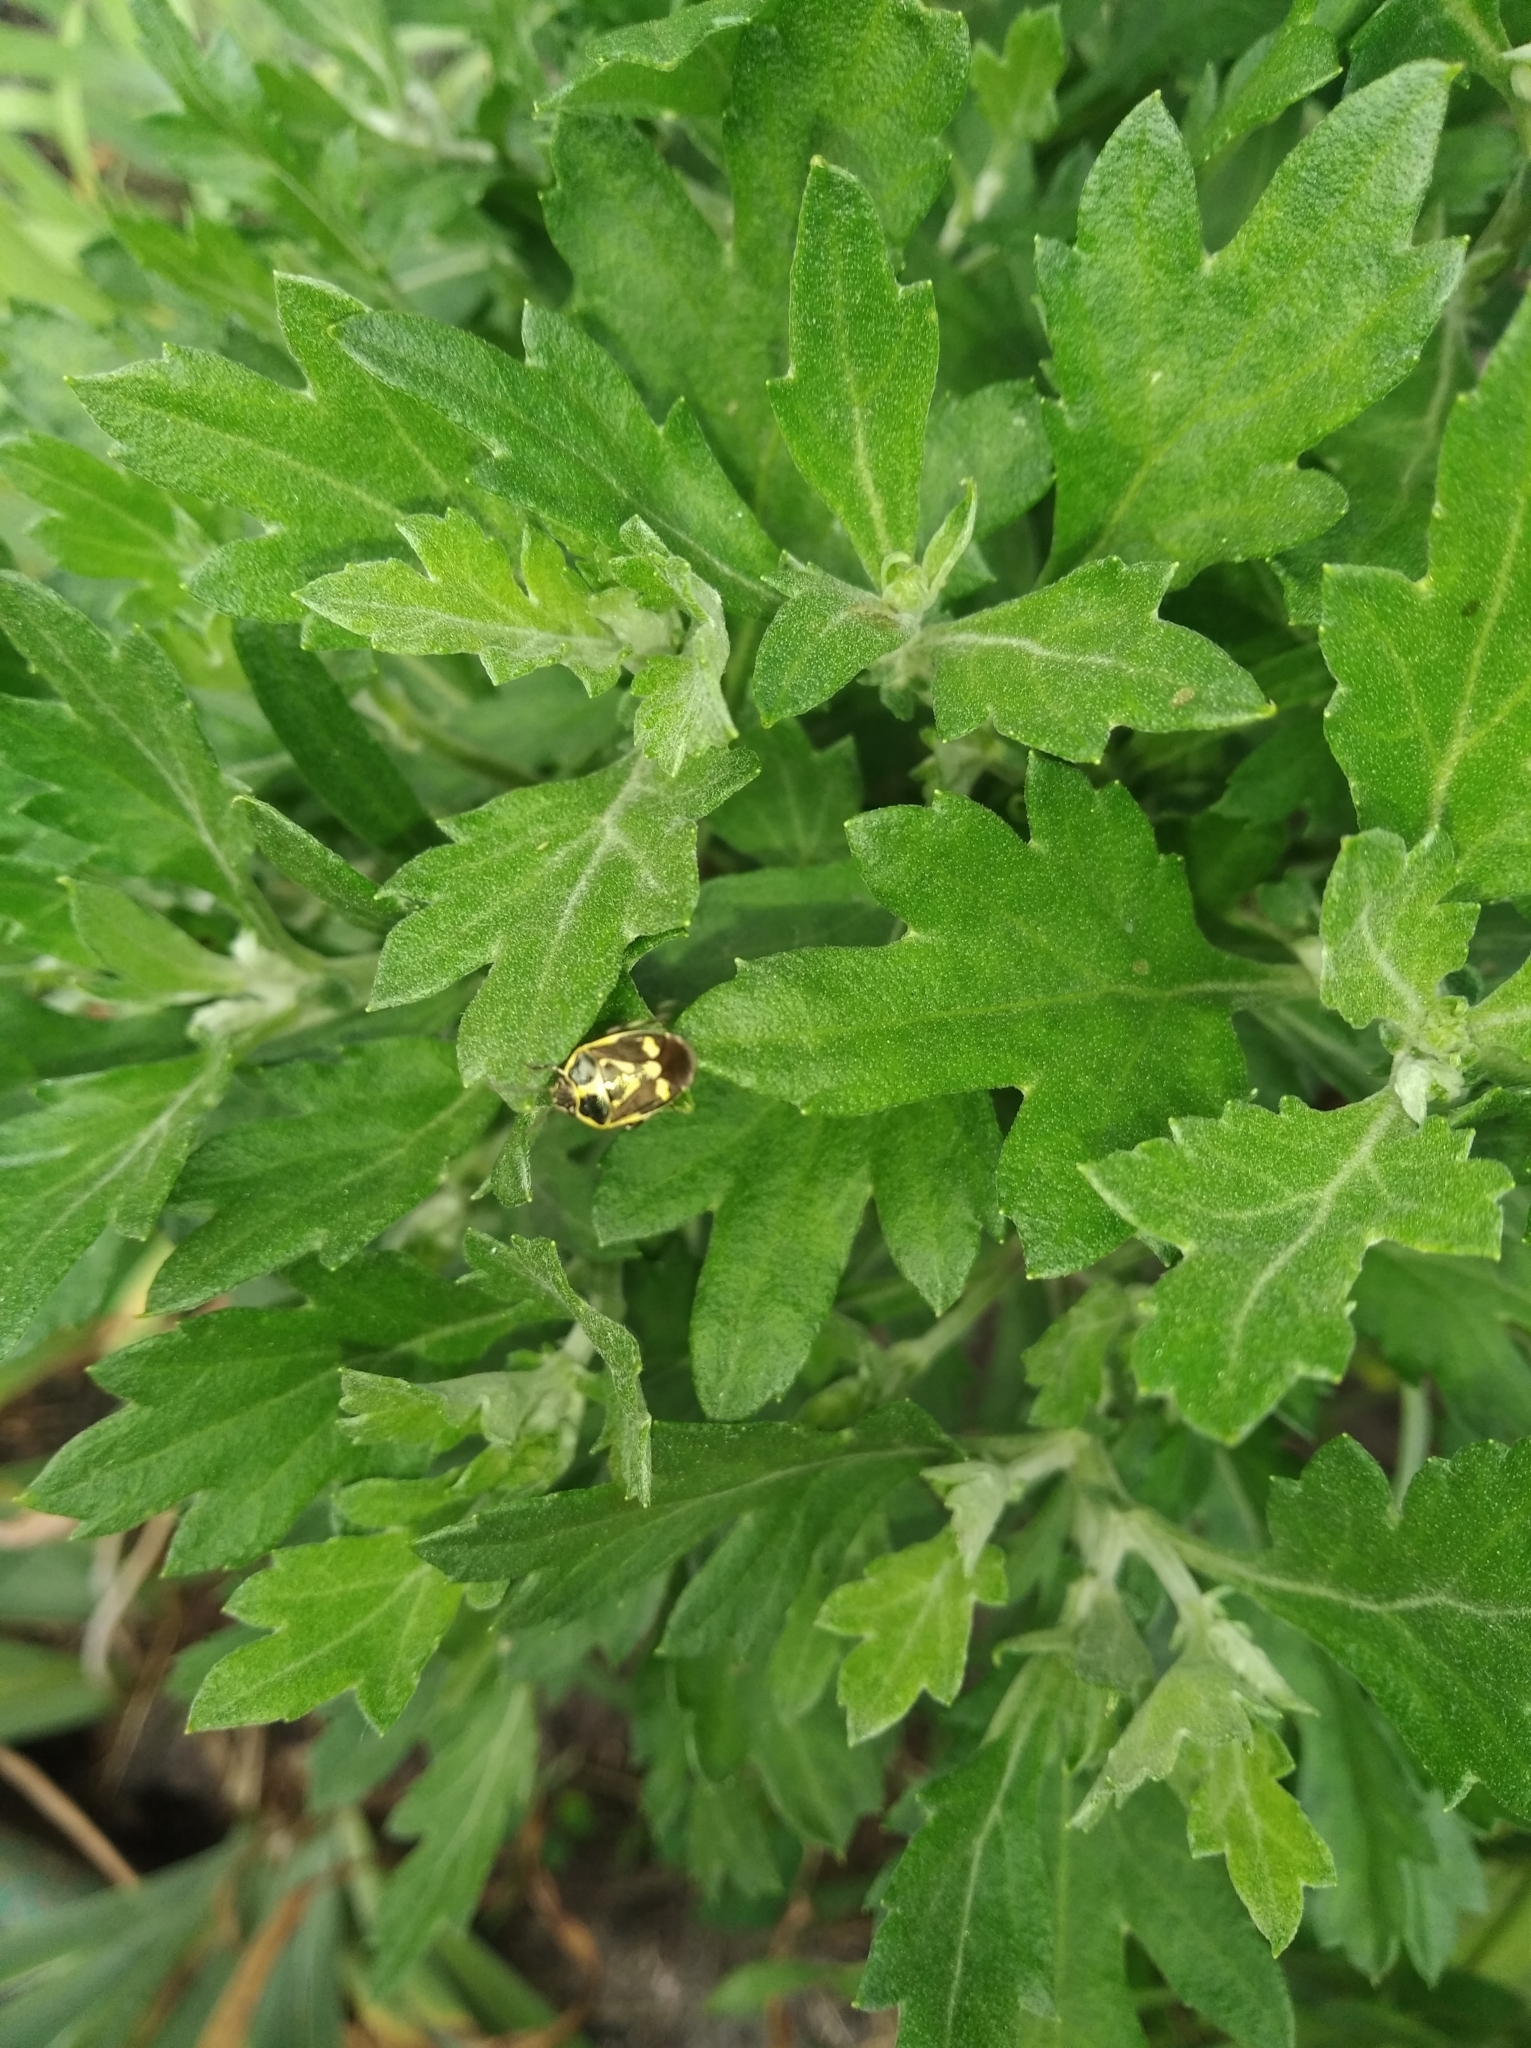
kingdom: Animalia
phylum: Arthropoda
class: Insecta
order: Hemiptera
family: Pentatomidae
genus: Eurydema
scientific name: Eurydema oleracea
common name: Cabbage bug
